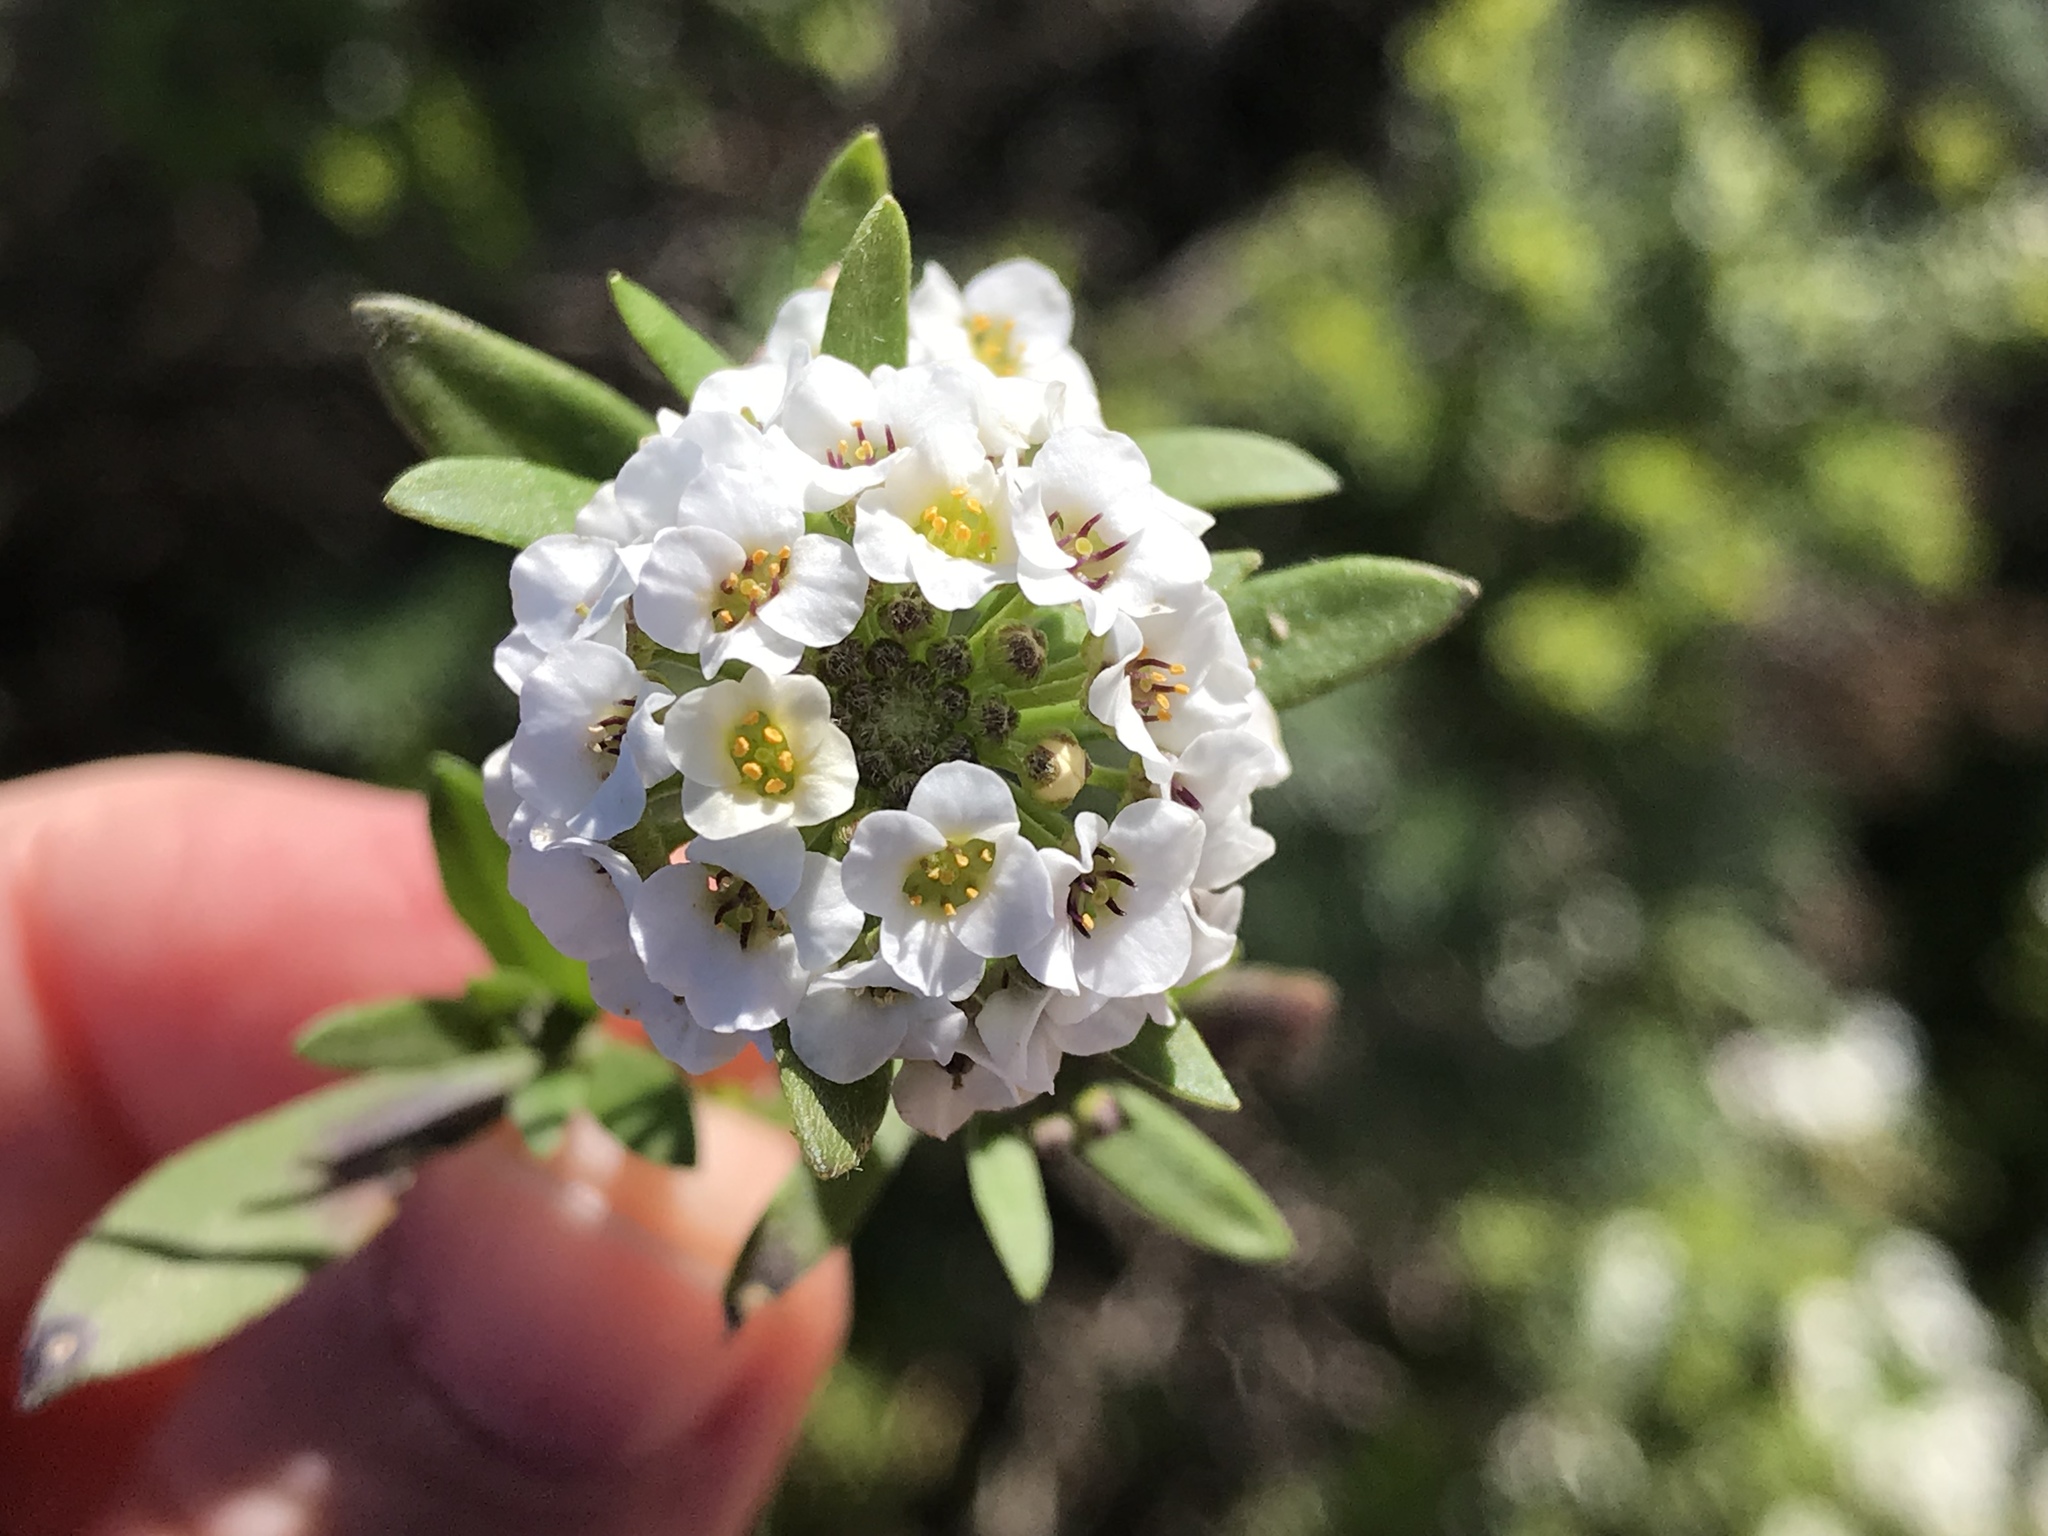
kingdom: Plantae
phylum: Tracheophyta
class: Magnoliopsida
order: Brassicales
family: Brassicaceae
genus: Lobularia
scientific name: Lobularia maritima
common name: Sweet alison
